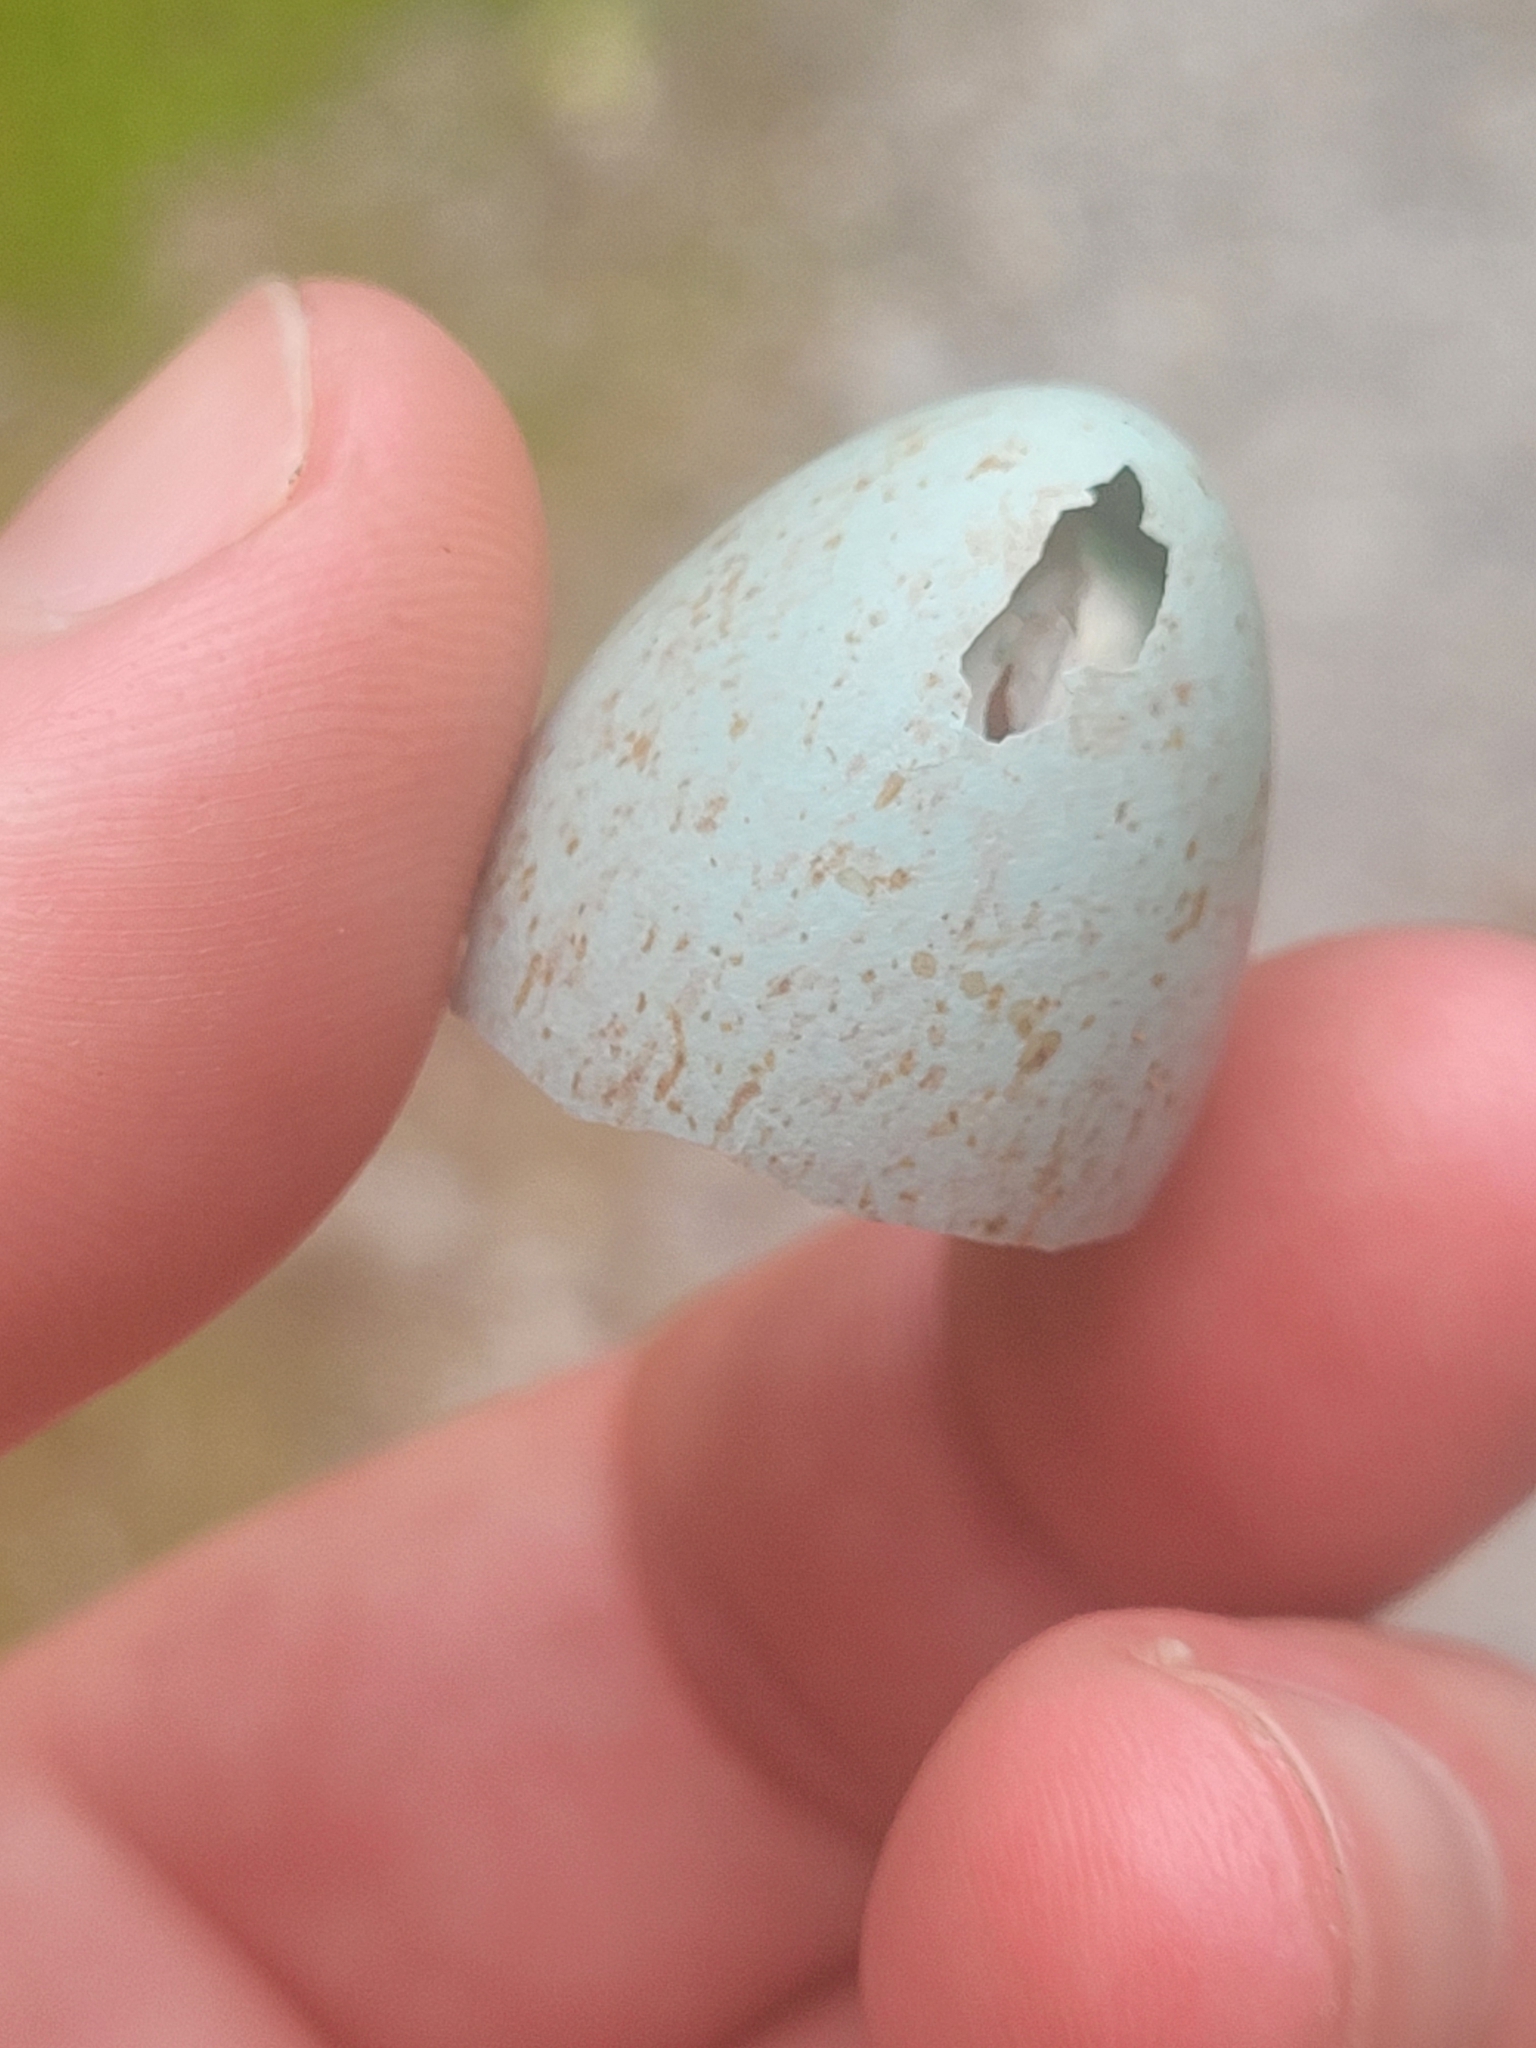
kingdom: Animalia
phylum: Chordata
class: Aves
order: Passeriformes
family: Turdidae
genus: Turdus
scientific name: Turdus merula
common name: Common blackbird
